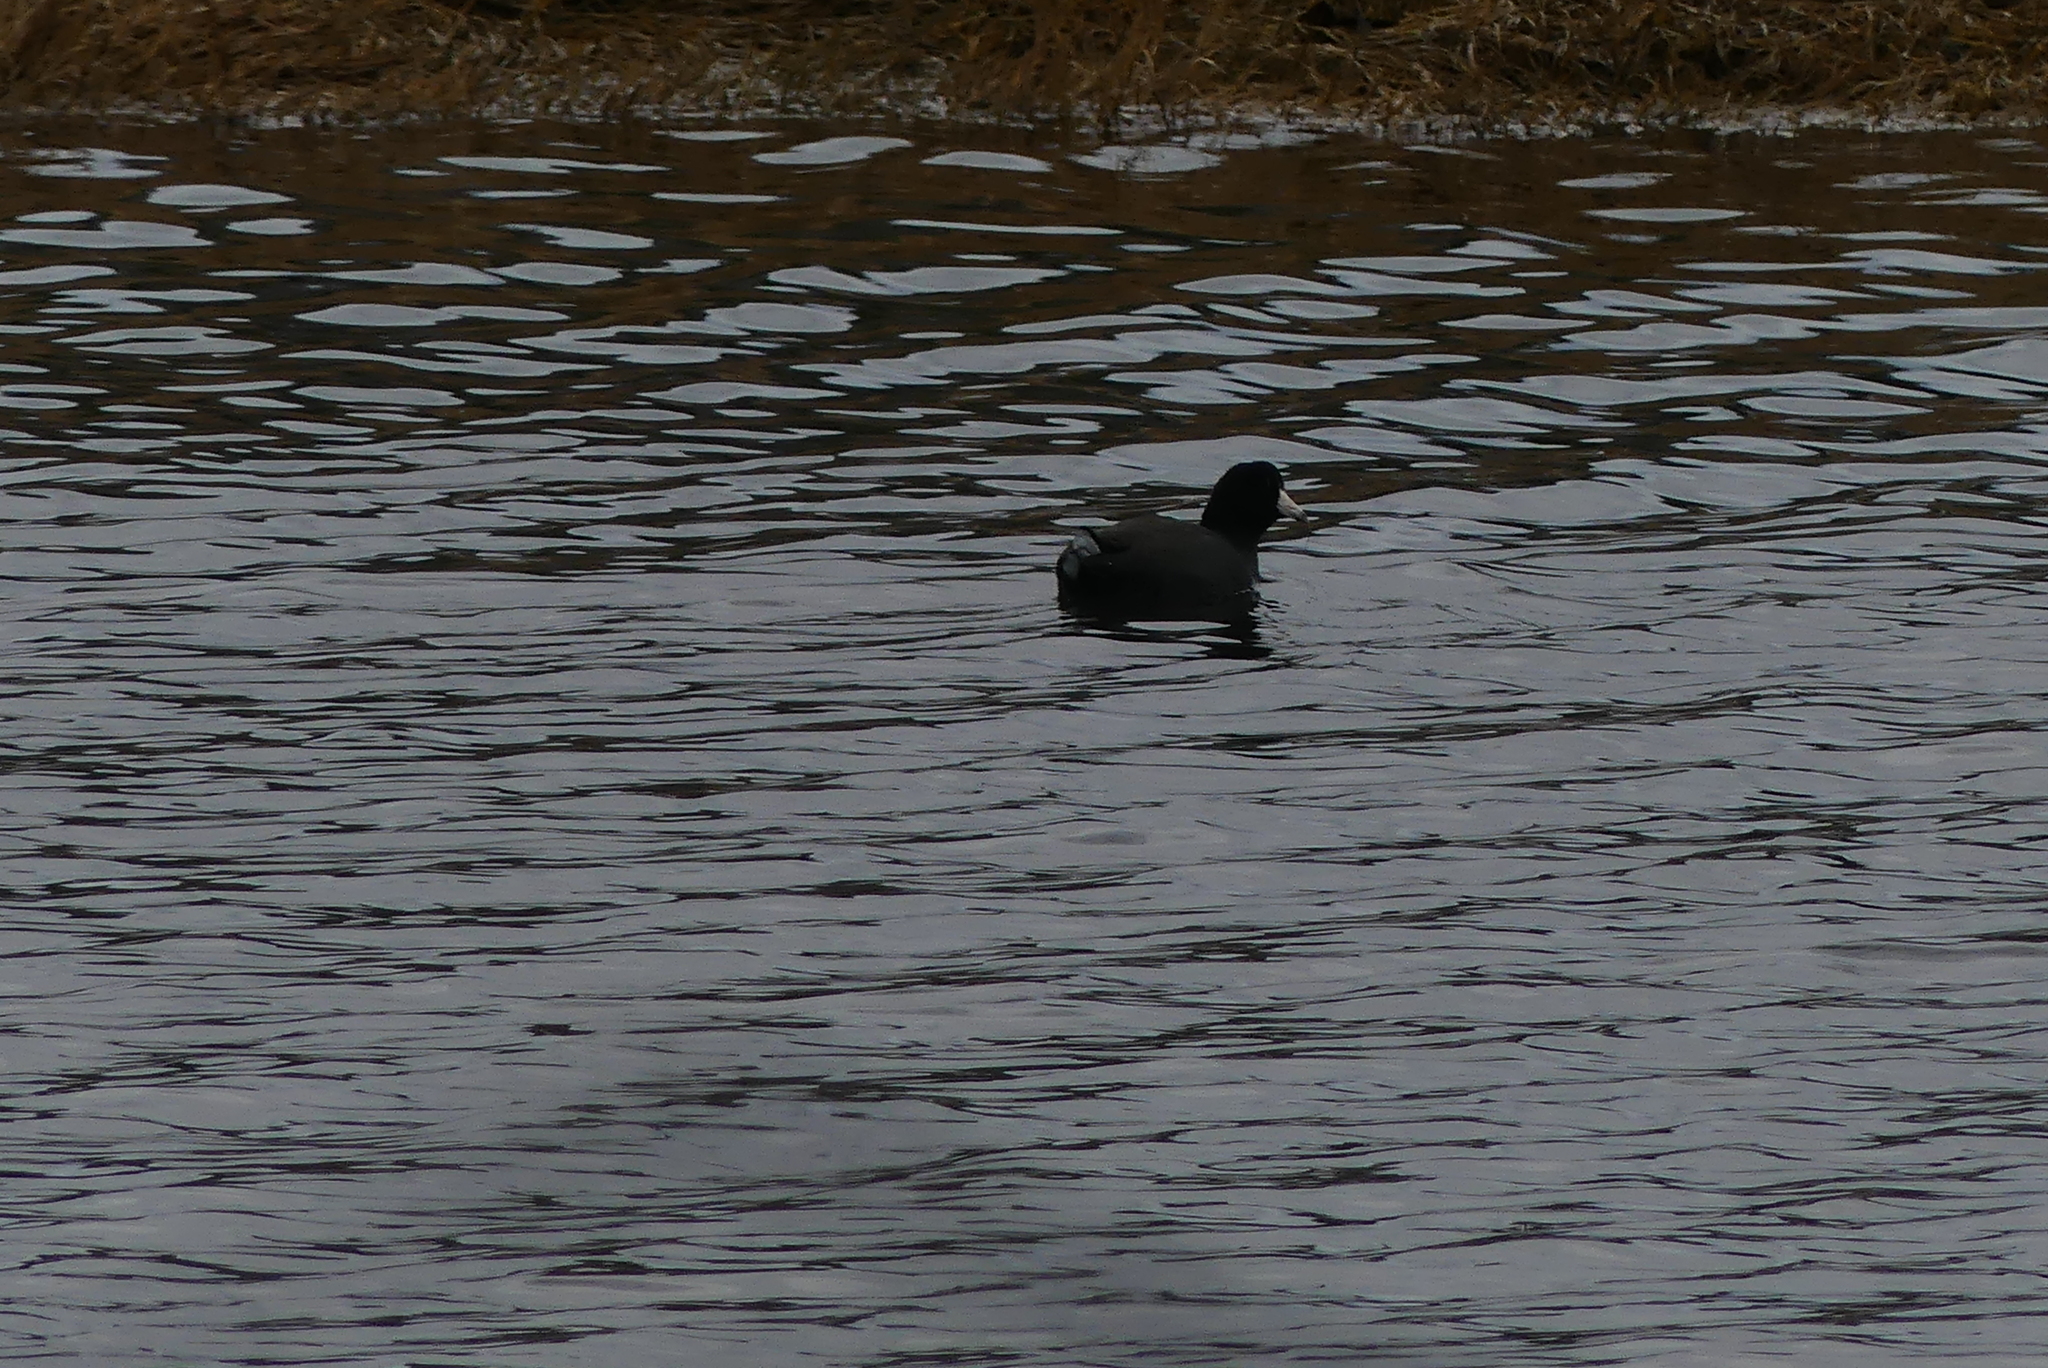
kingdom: Animalia
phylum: Chordata
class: Aves
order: Gruiformes
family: Rallidae
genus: Fulica
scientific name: Fulica americana
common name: American coot
